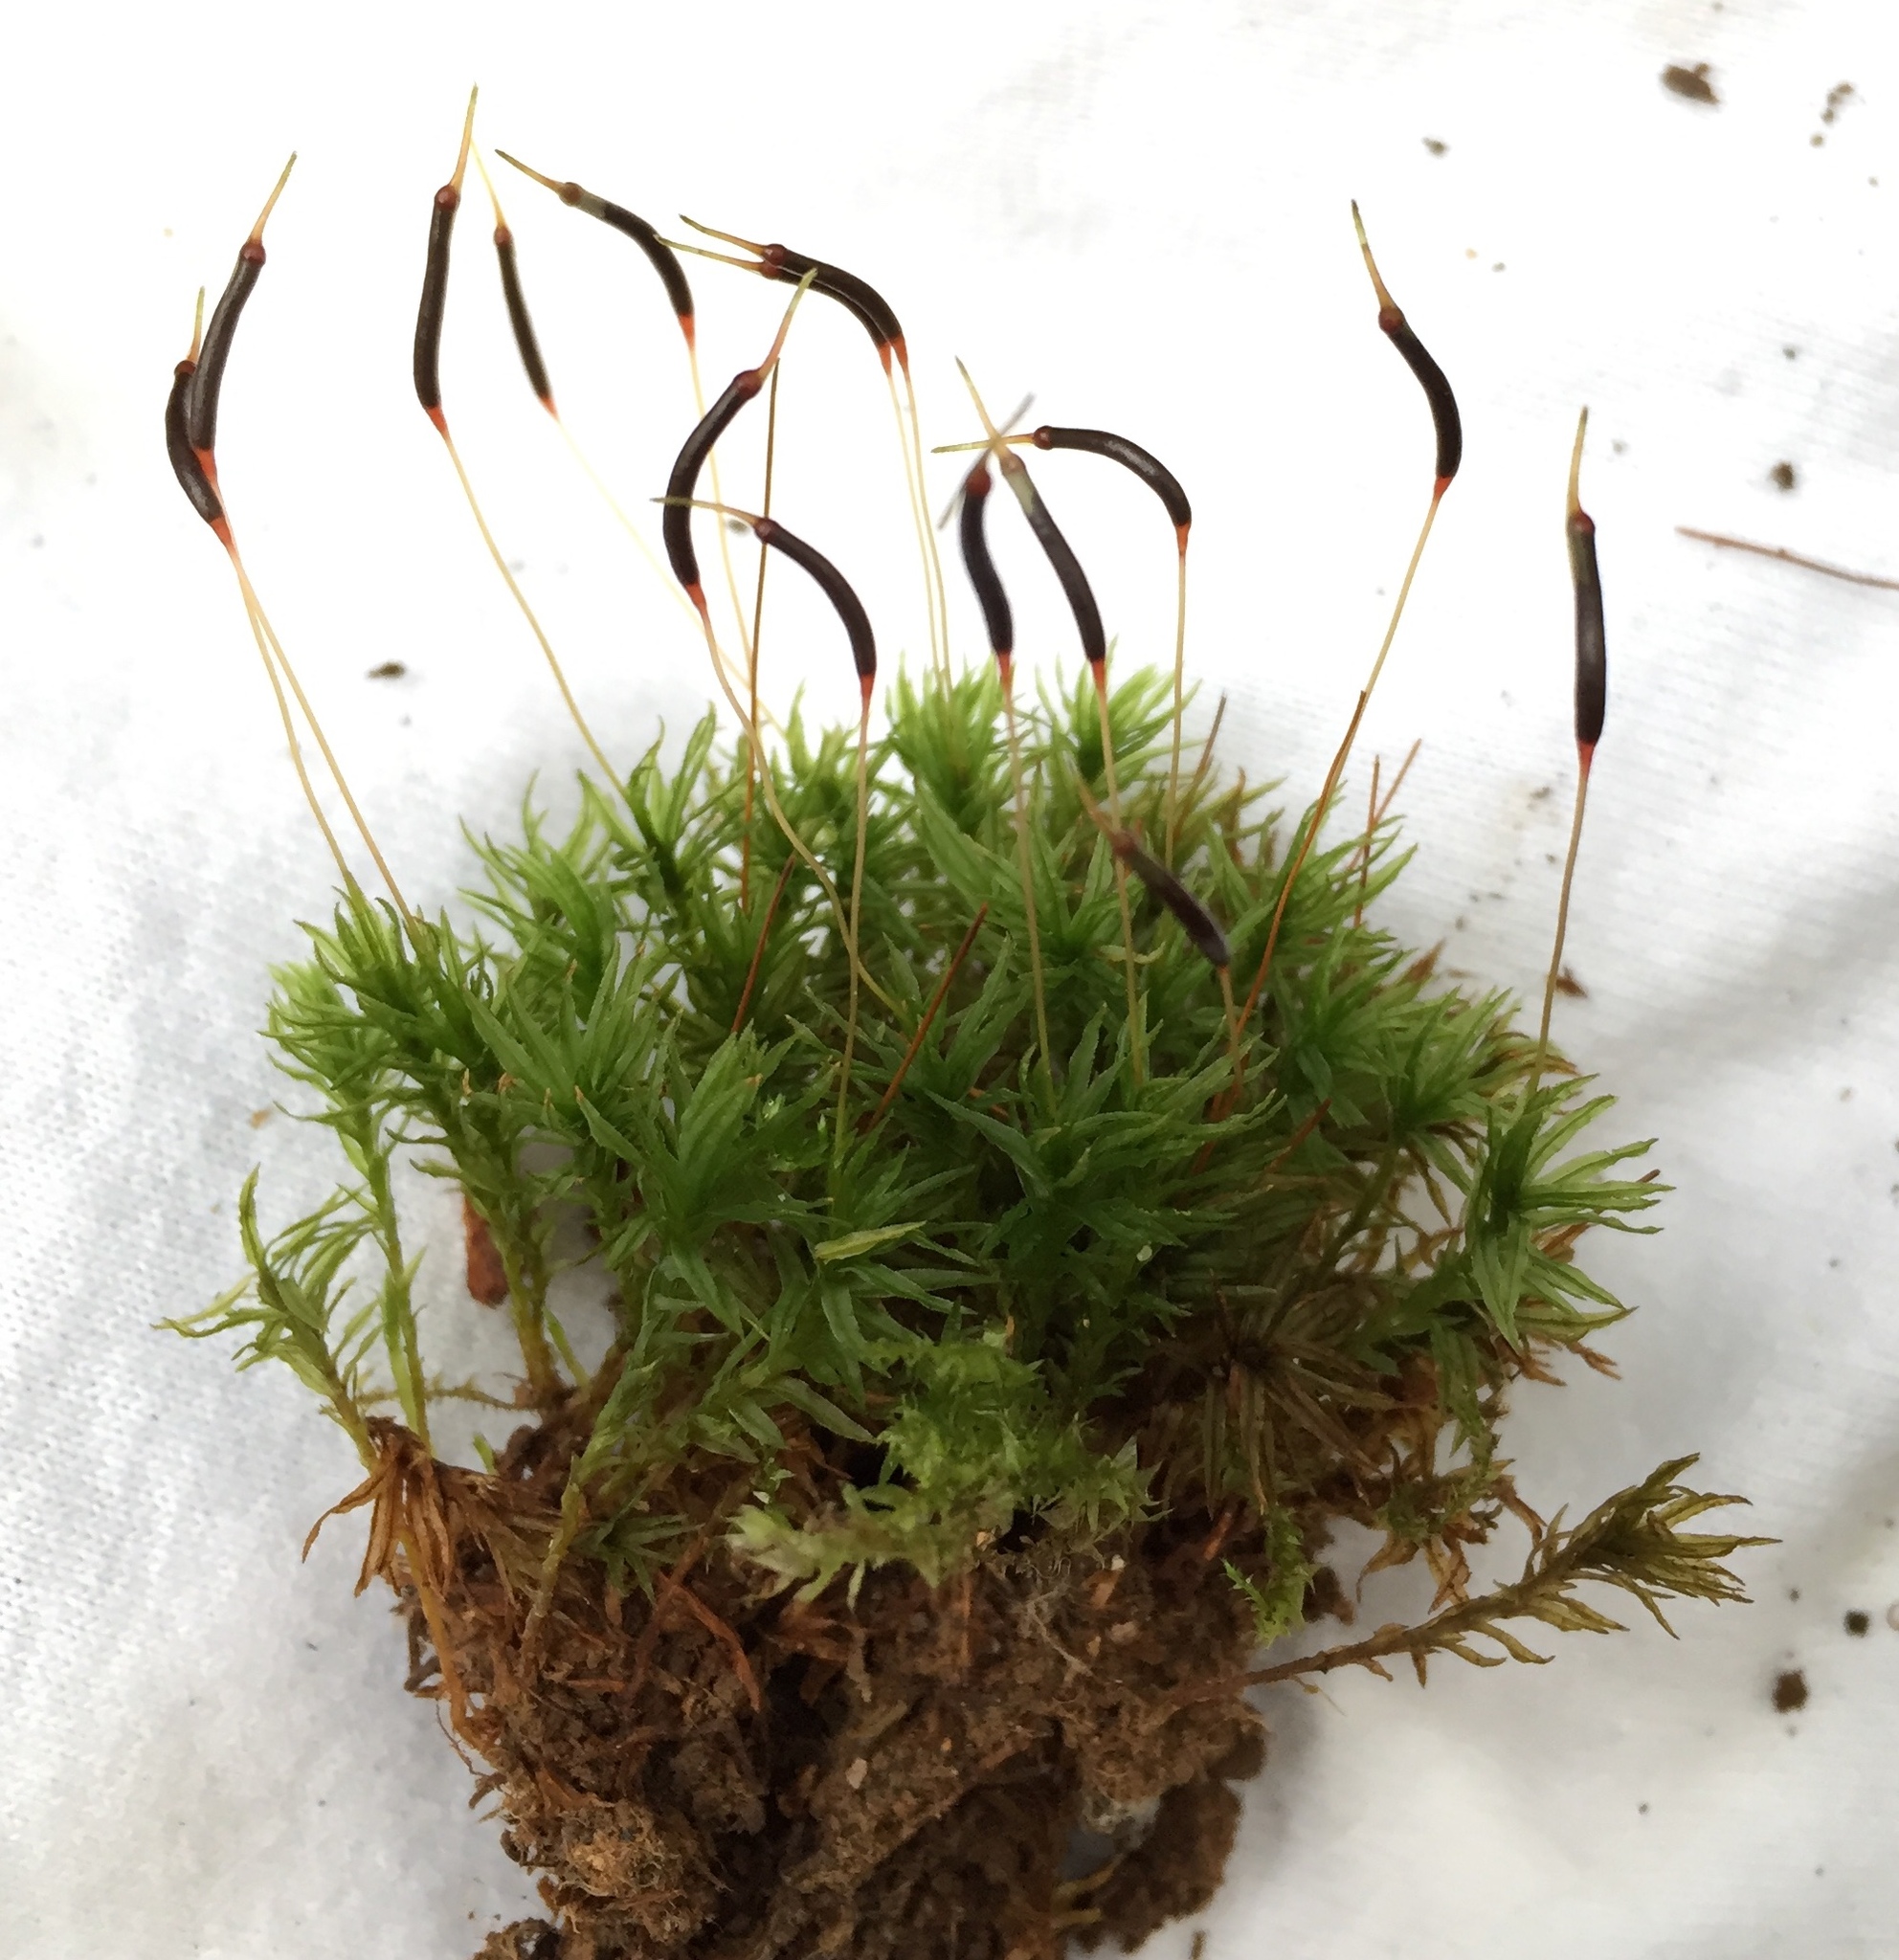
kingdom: Plantae
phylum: Bryophyta
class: Polytrichopsida
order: Polytrichales
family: Polytrichaceae
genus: Atrichum
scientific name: Atrichum altecristatum
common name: Ridged smoothcap moss
